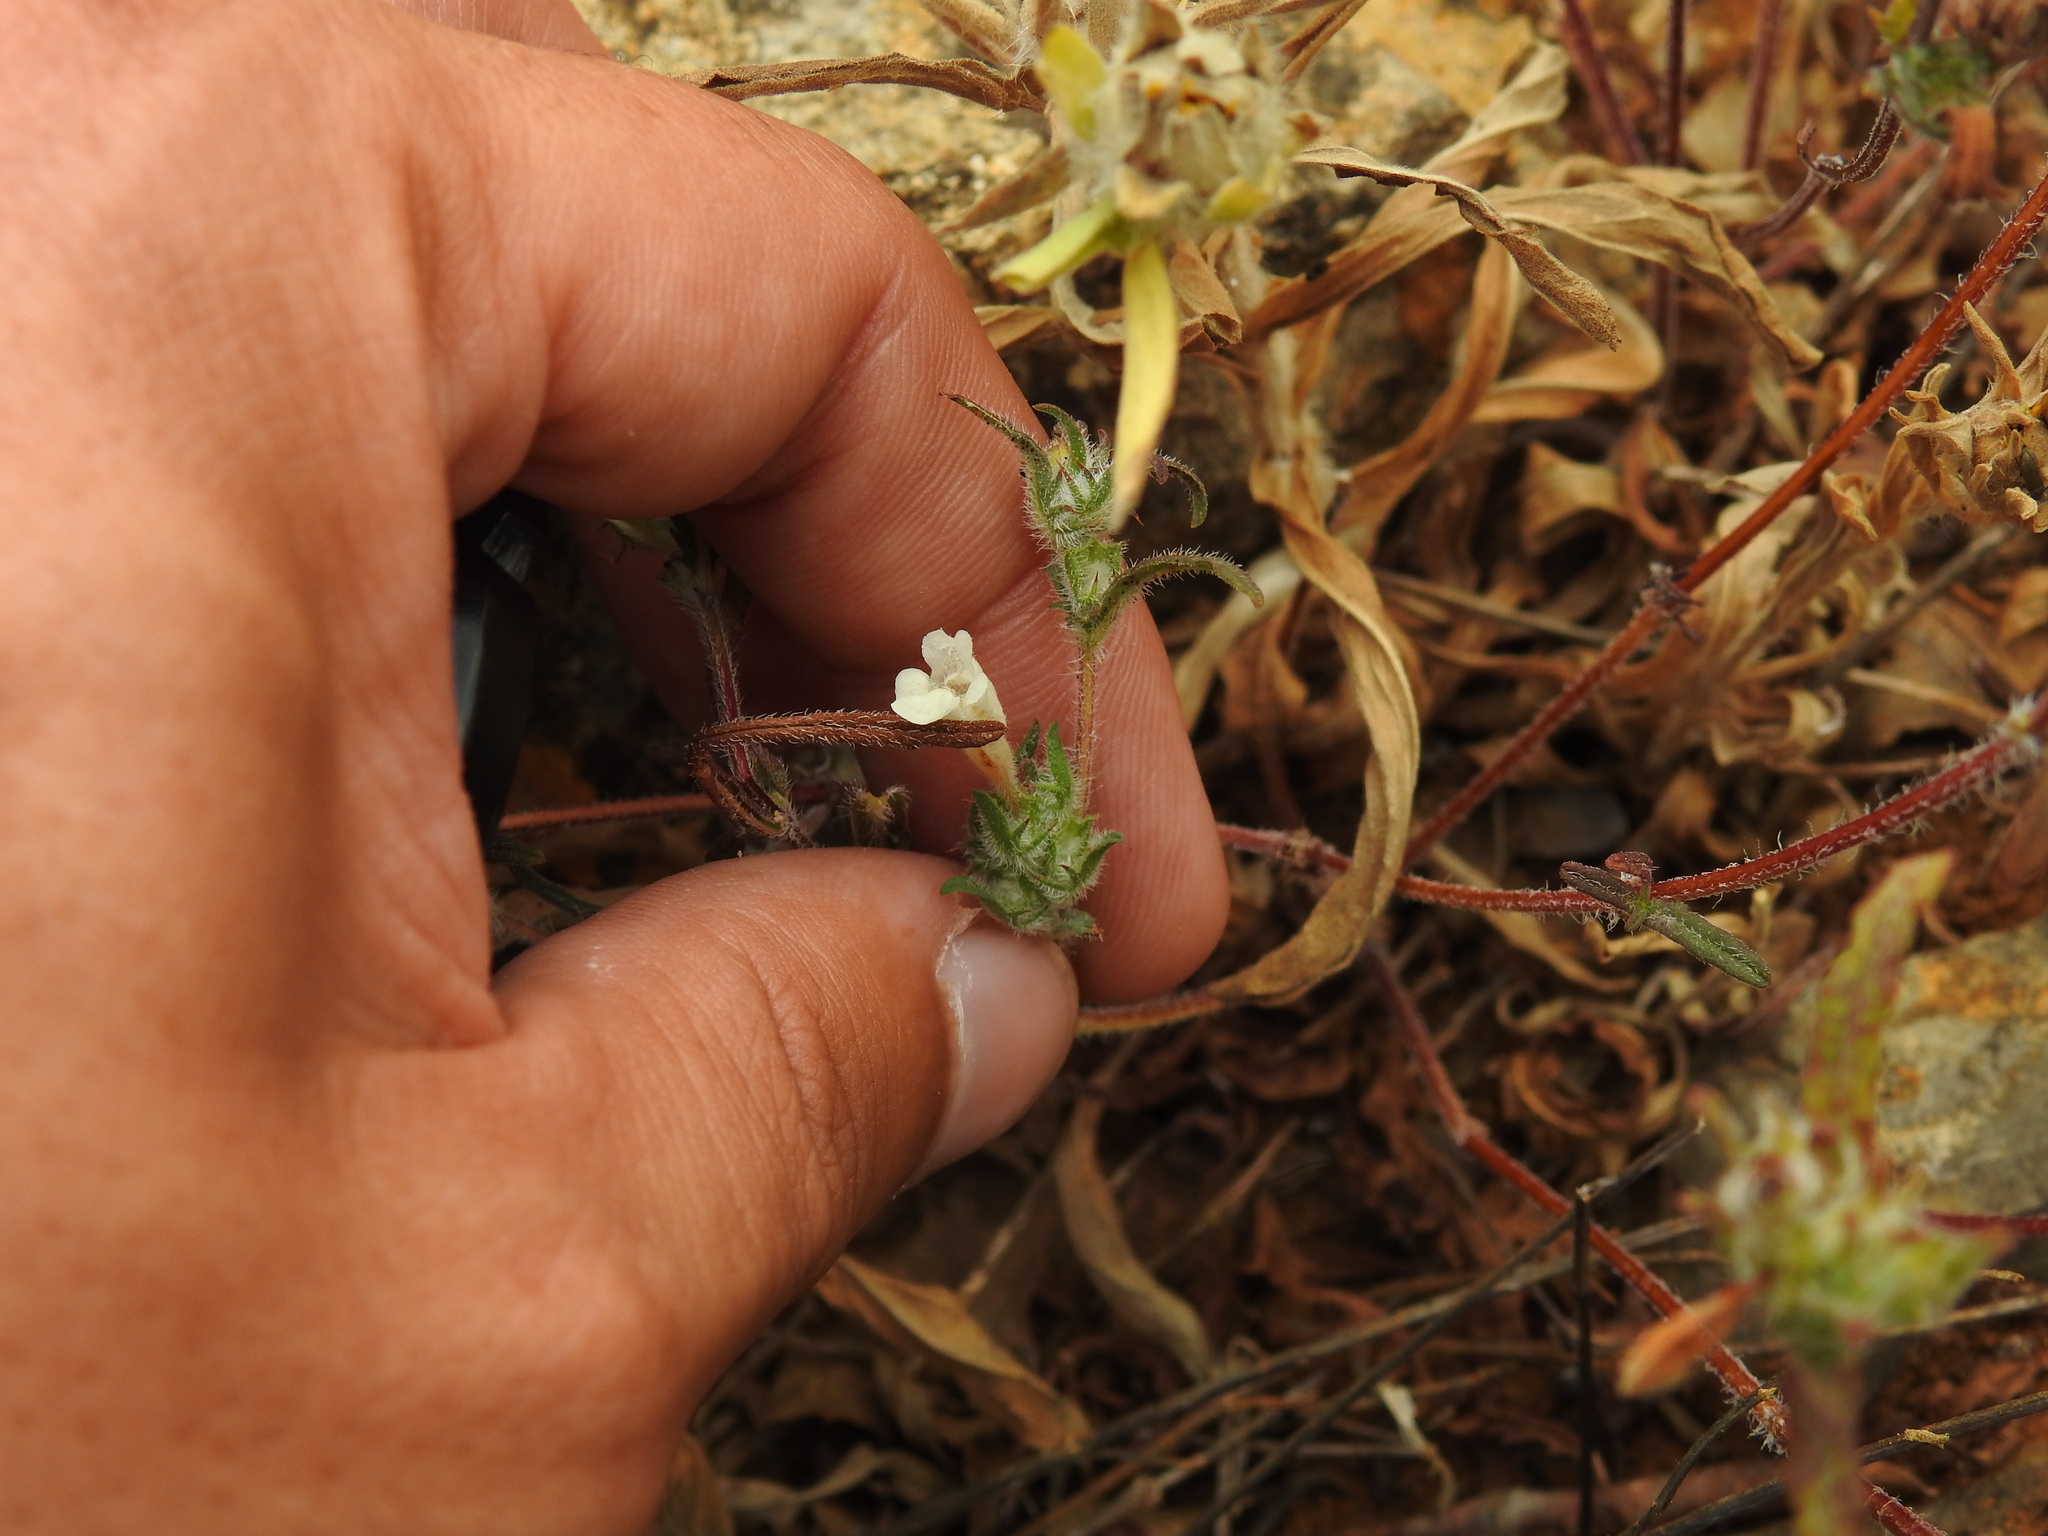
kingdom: Plantae
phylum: Tracheophyta
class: Magnoliopsida
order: Lamiales
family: Lamiaceae
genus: Cleonia
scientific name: Cleonia lusitanica
